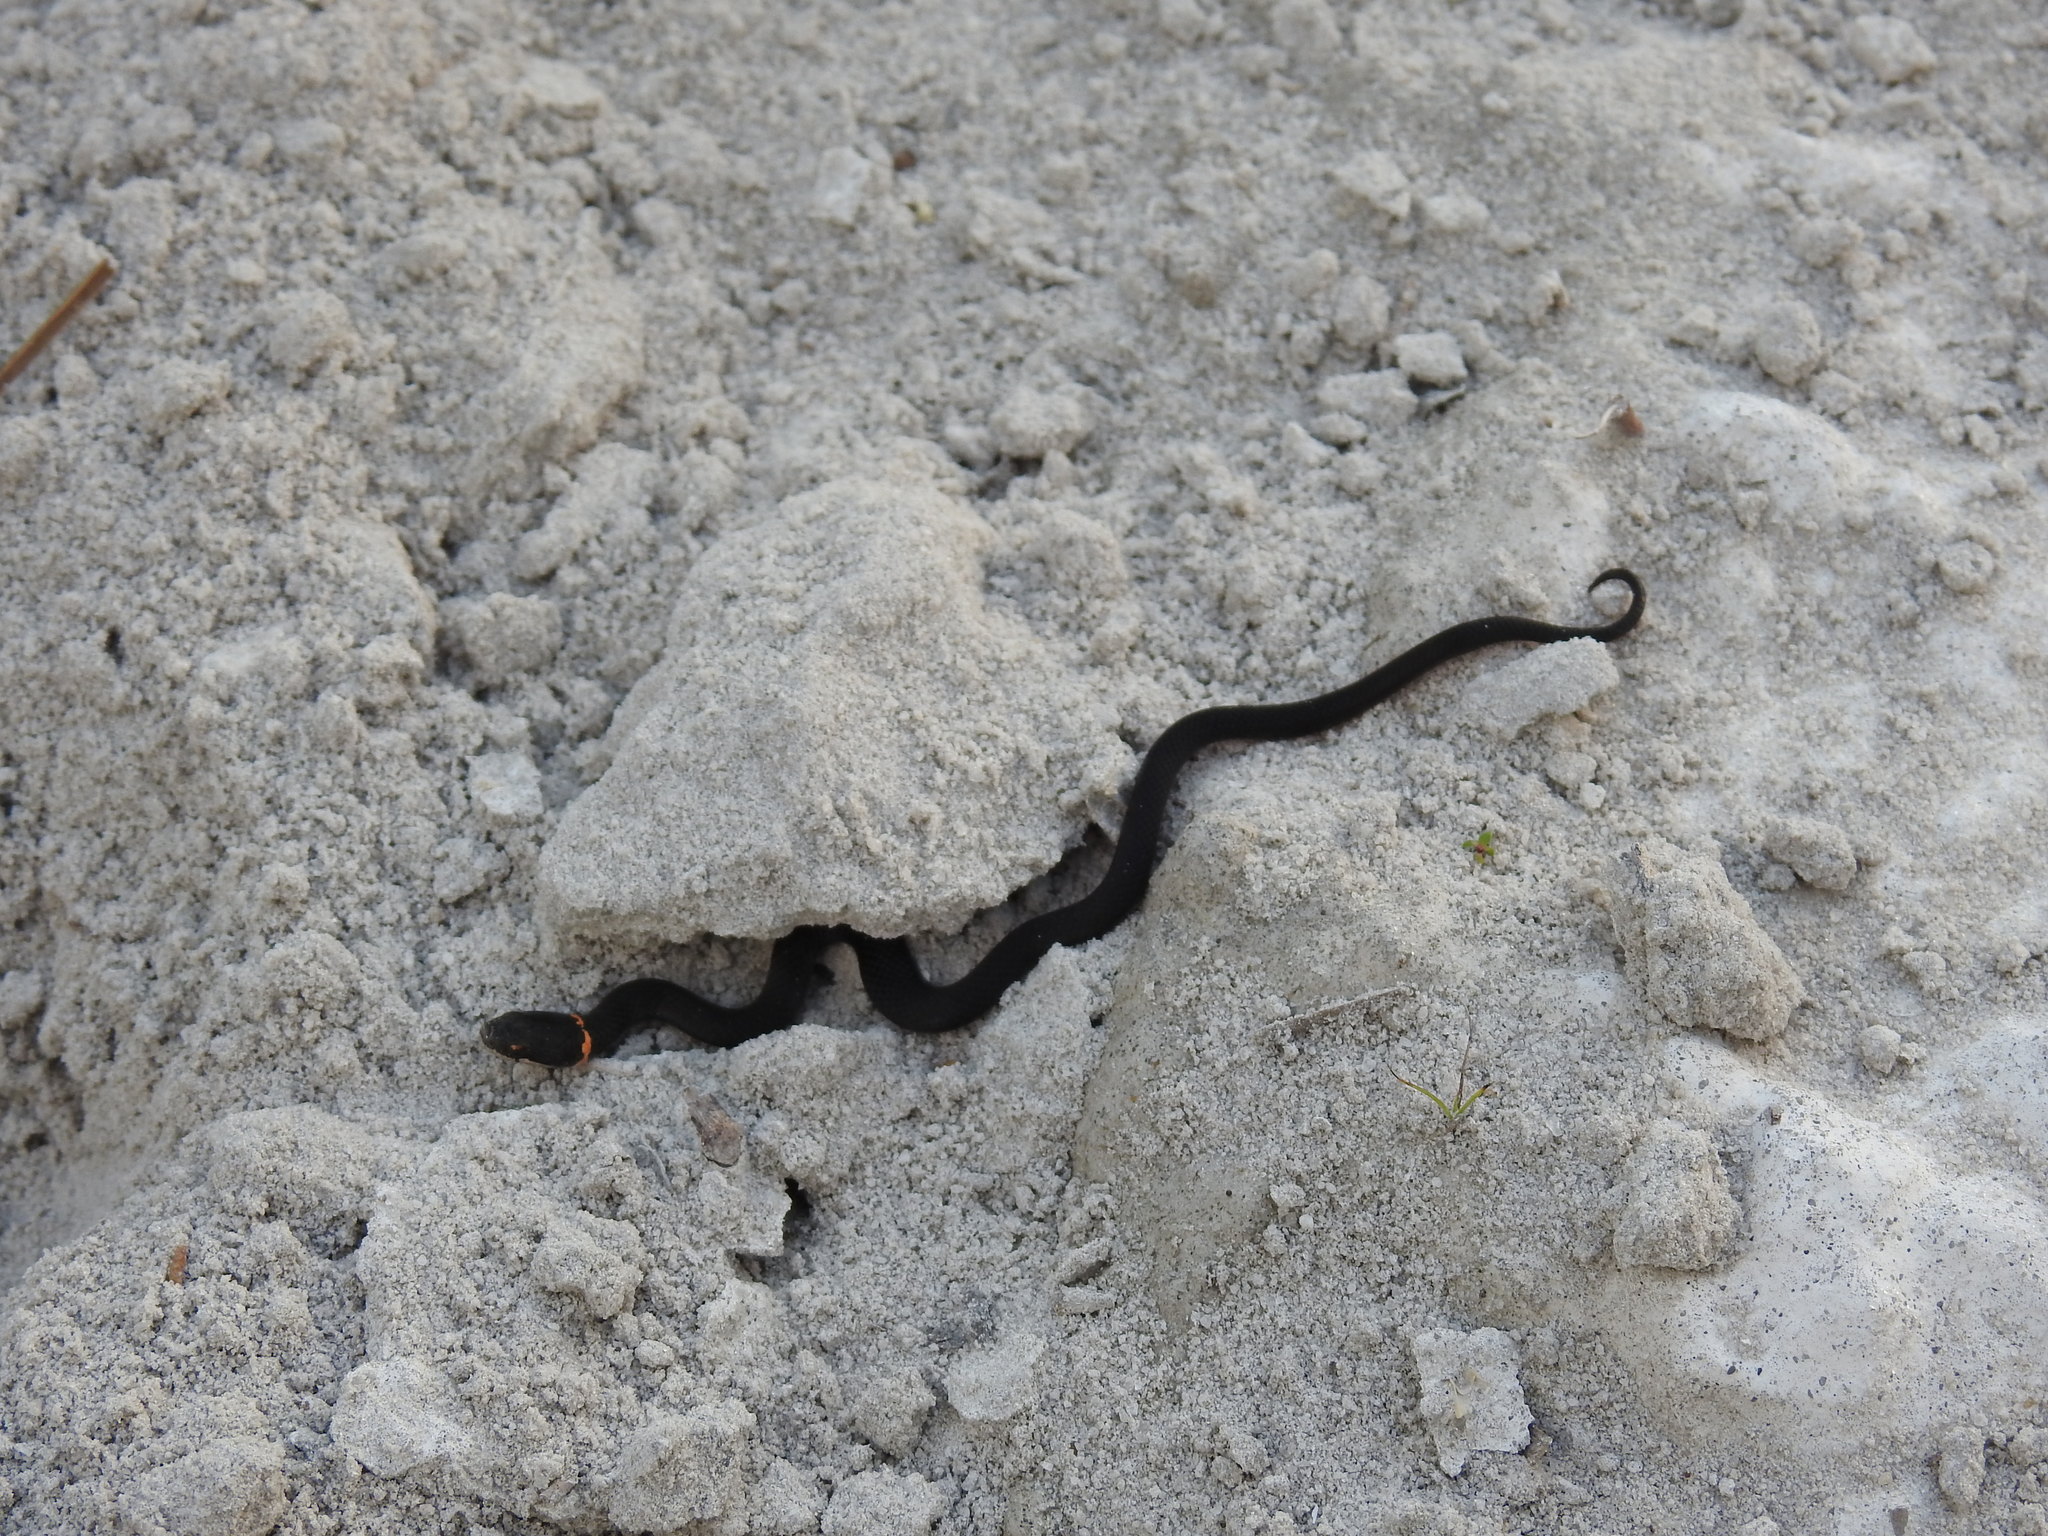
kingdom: Animalia
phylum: Chordata
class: Squamata
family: Colubridae
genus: Diadophis
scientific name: Diadophis punctatus
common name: Ringneck snake
